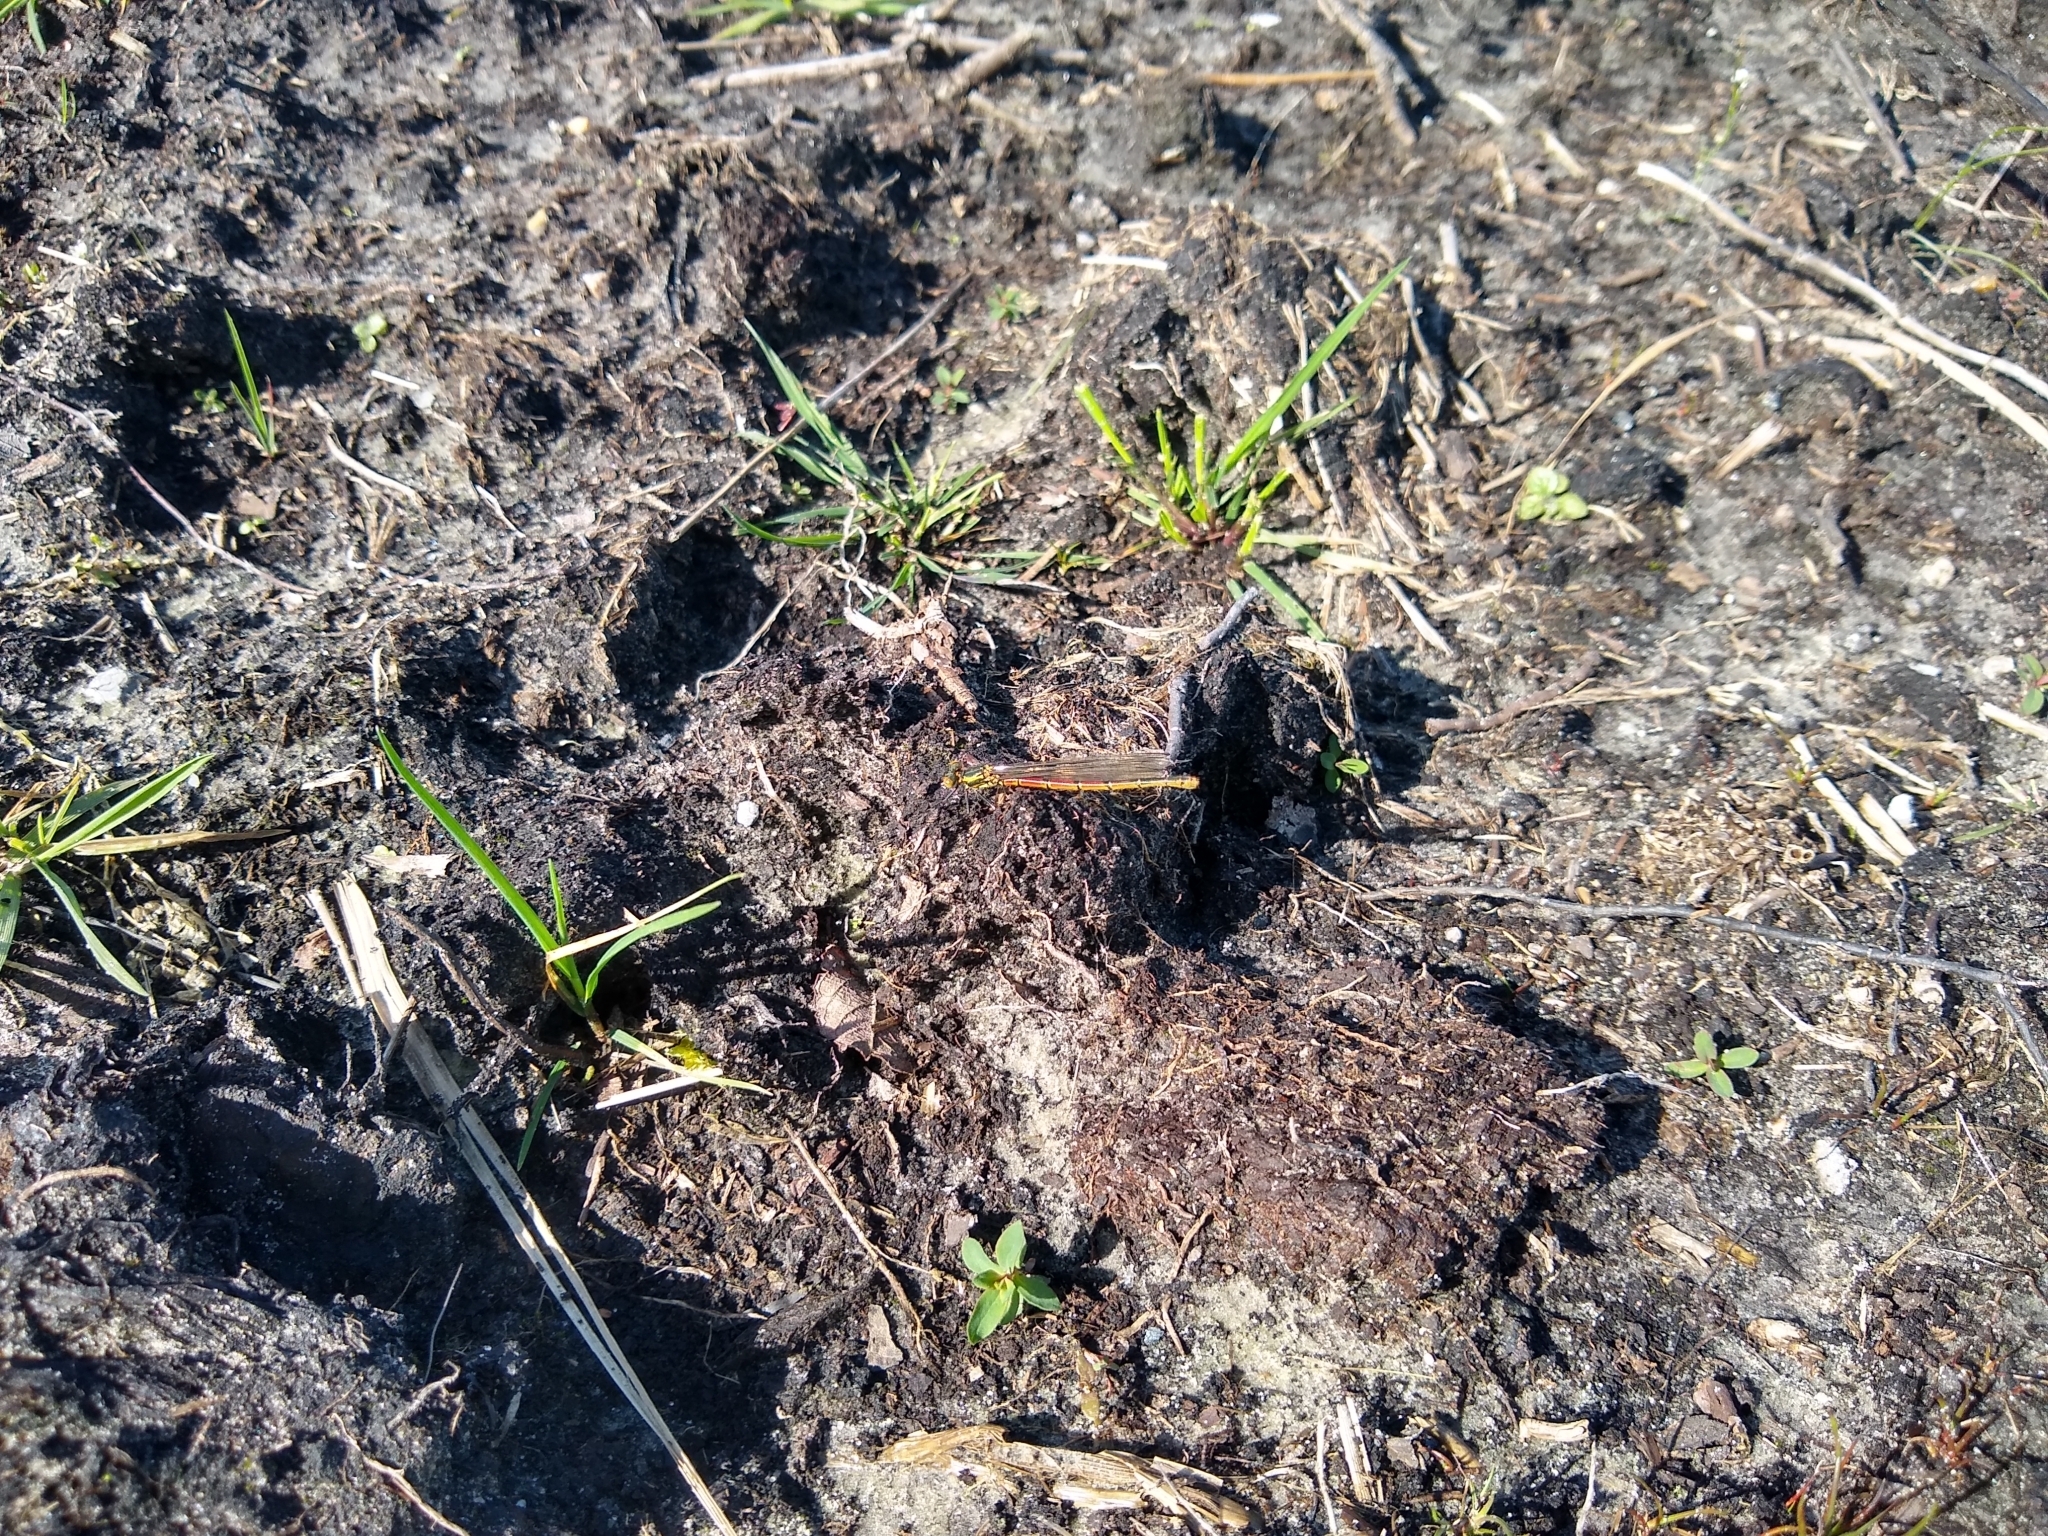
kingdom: Animalia
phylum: Arthropoda
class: Insecta
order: Odonata
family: Coenagrionidae
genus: Pyrrhosoma
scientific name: Pyrrhosoma nymphula
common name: Large red damsel
